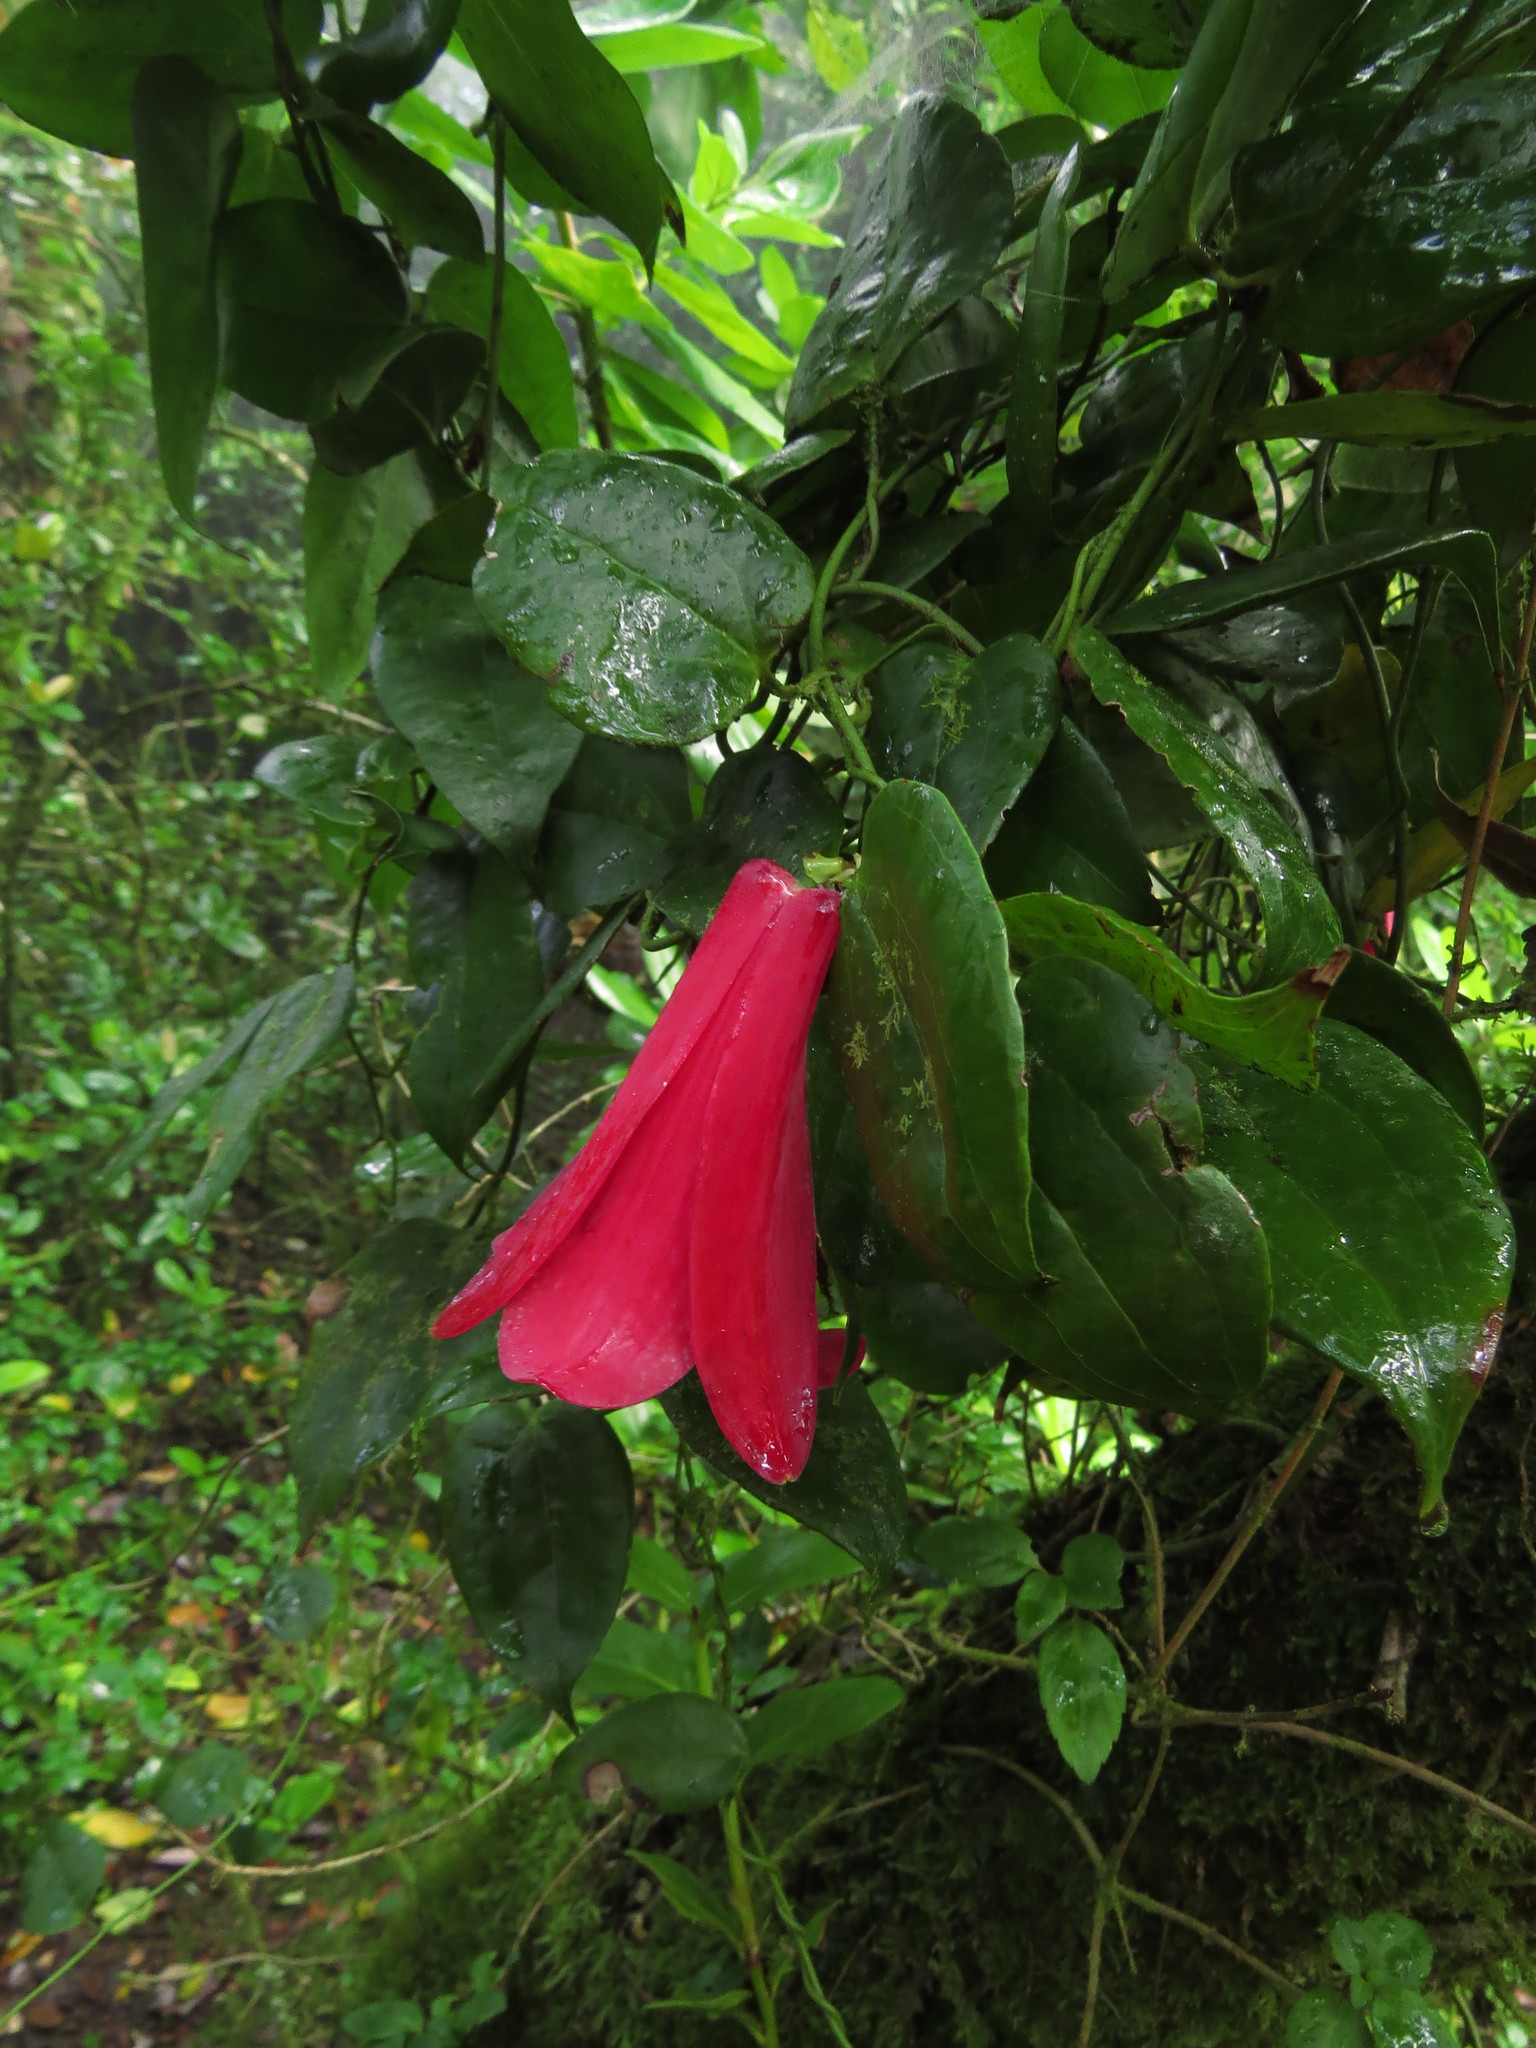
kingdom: Plantae
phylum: Tracheophyta
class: Liliopsida
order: Liliales
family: Philesiaceae
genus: Lapageria
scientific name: Lapageria rosea
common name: Chilean-bellflower
